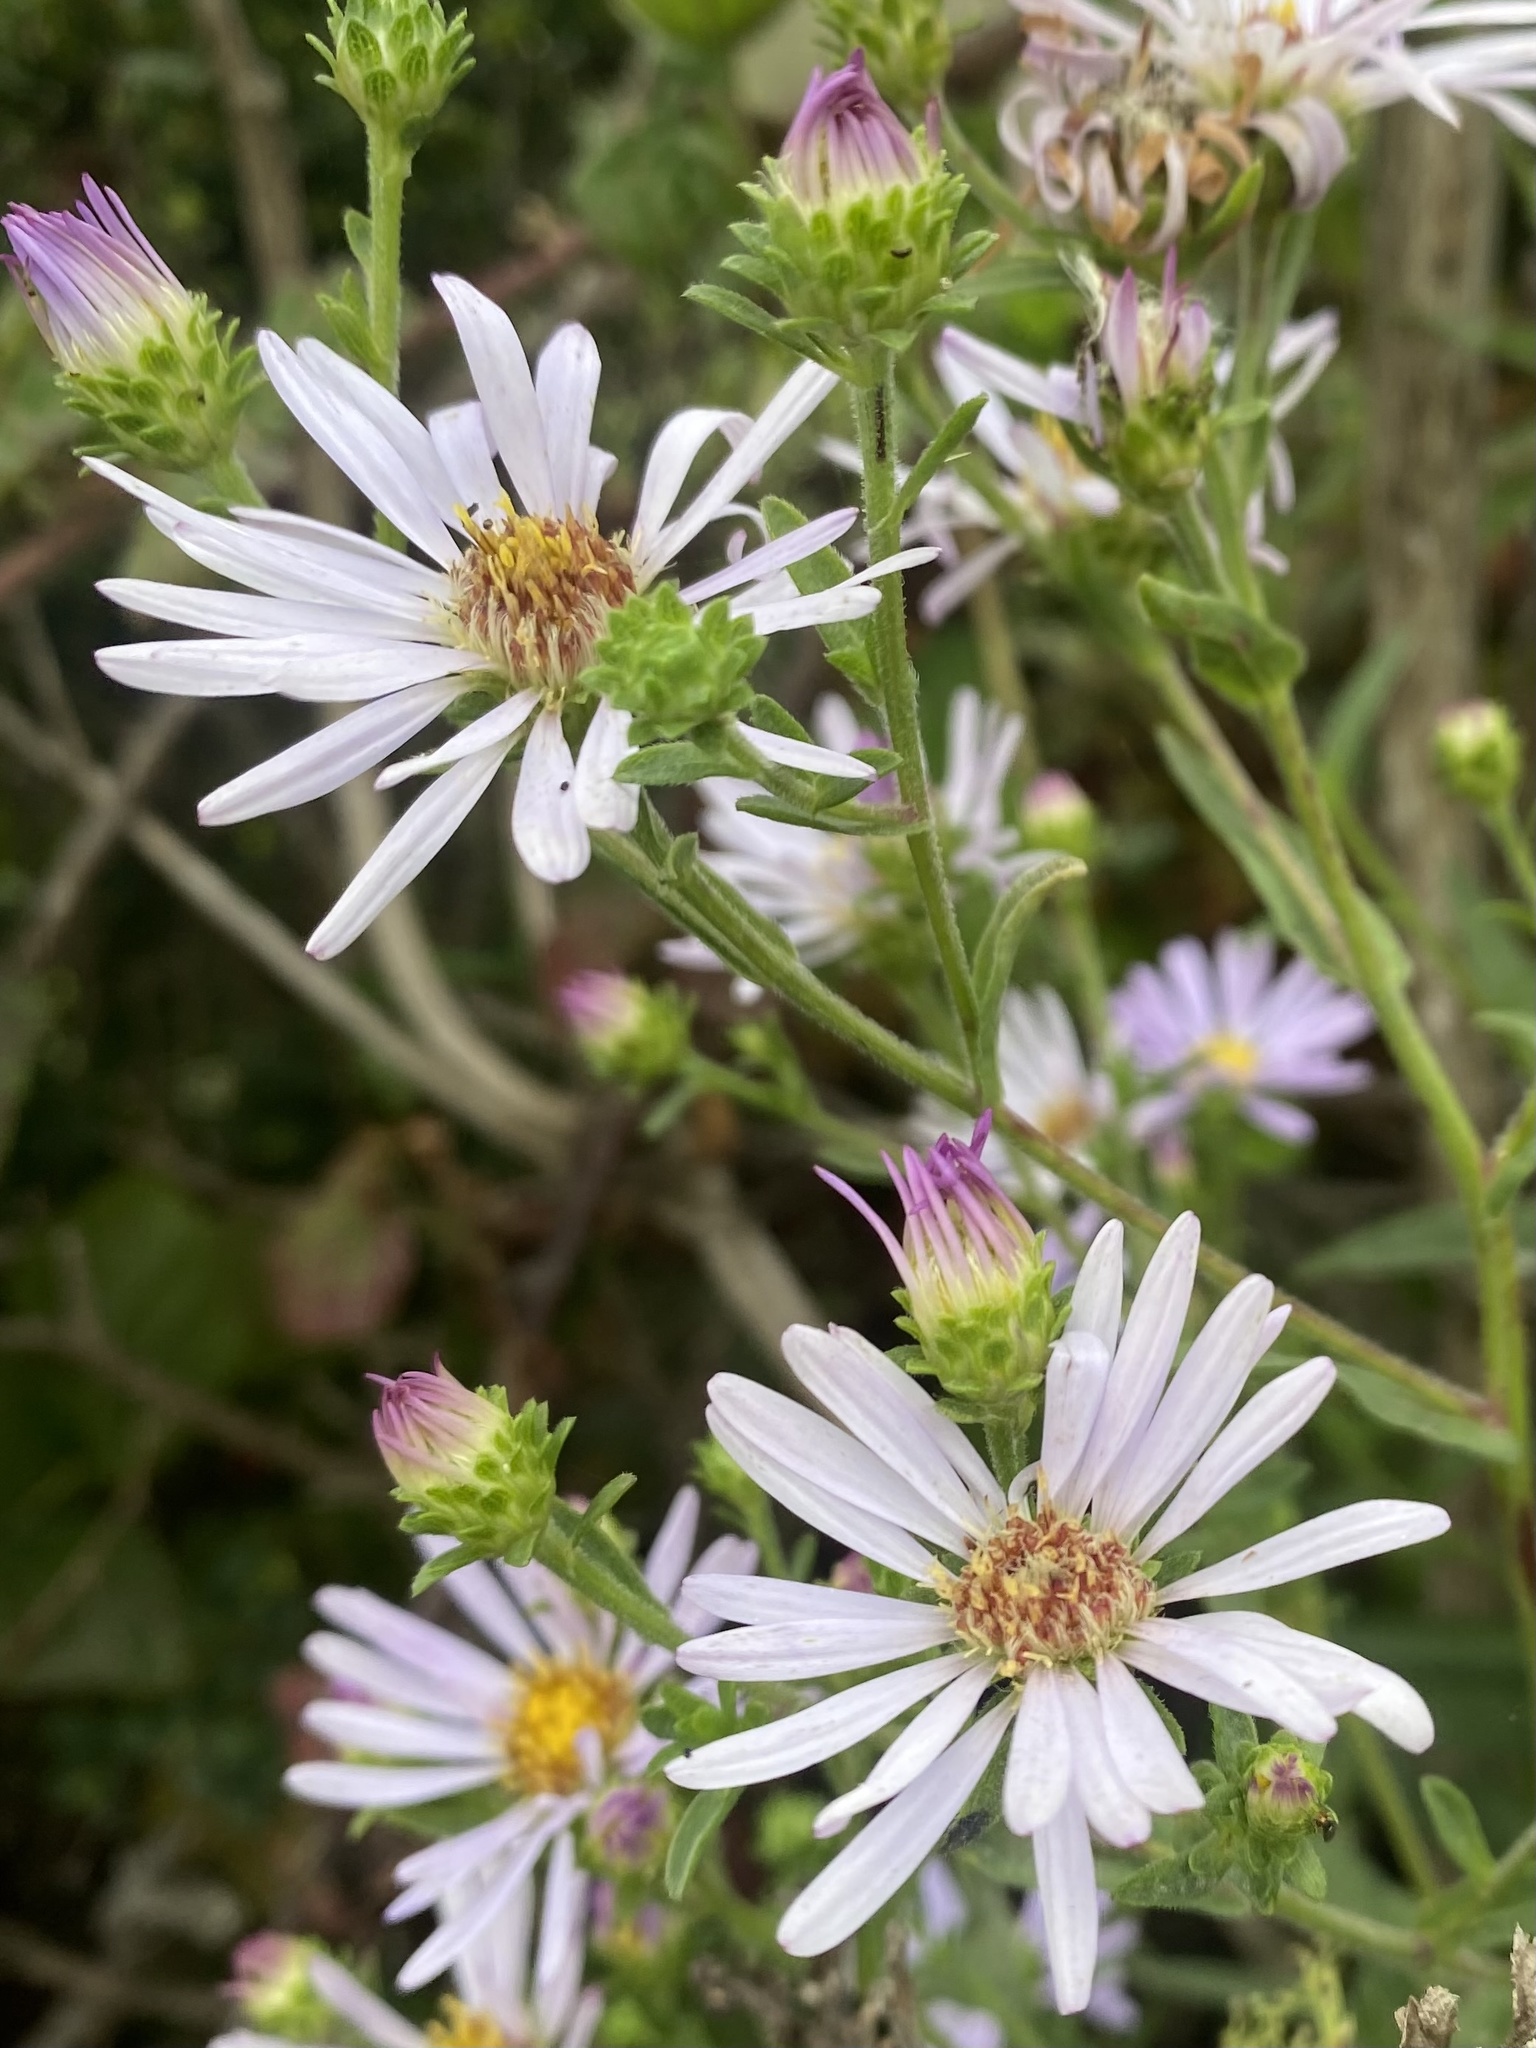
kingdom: Plantae
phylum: Tracheophyta
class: Magnoliopsida
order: Asterales
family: Asteraceae
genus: Symphyotrichum
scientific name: Symphyotrichum chilense
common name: Pacific aster
